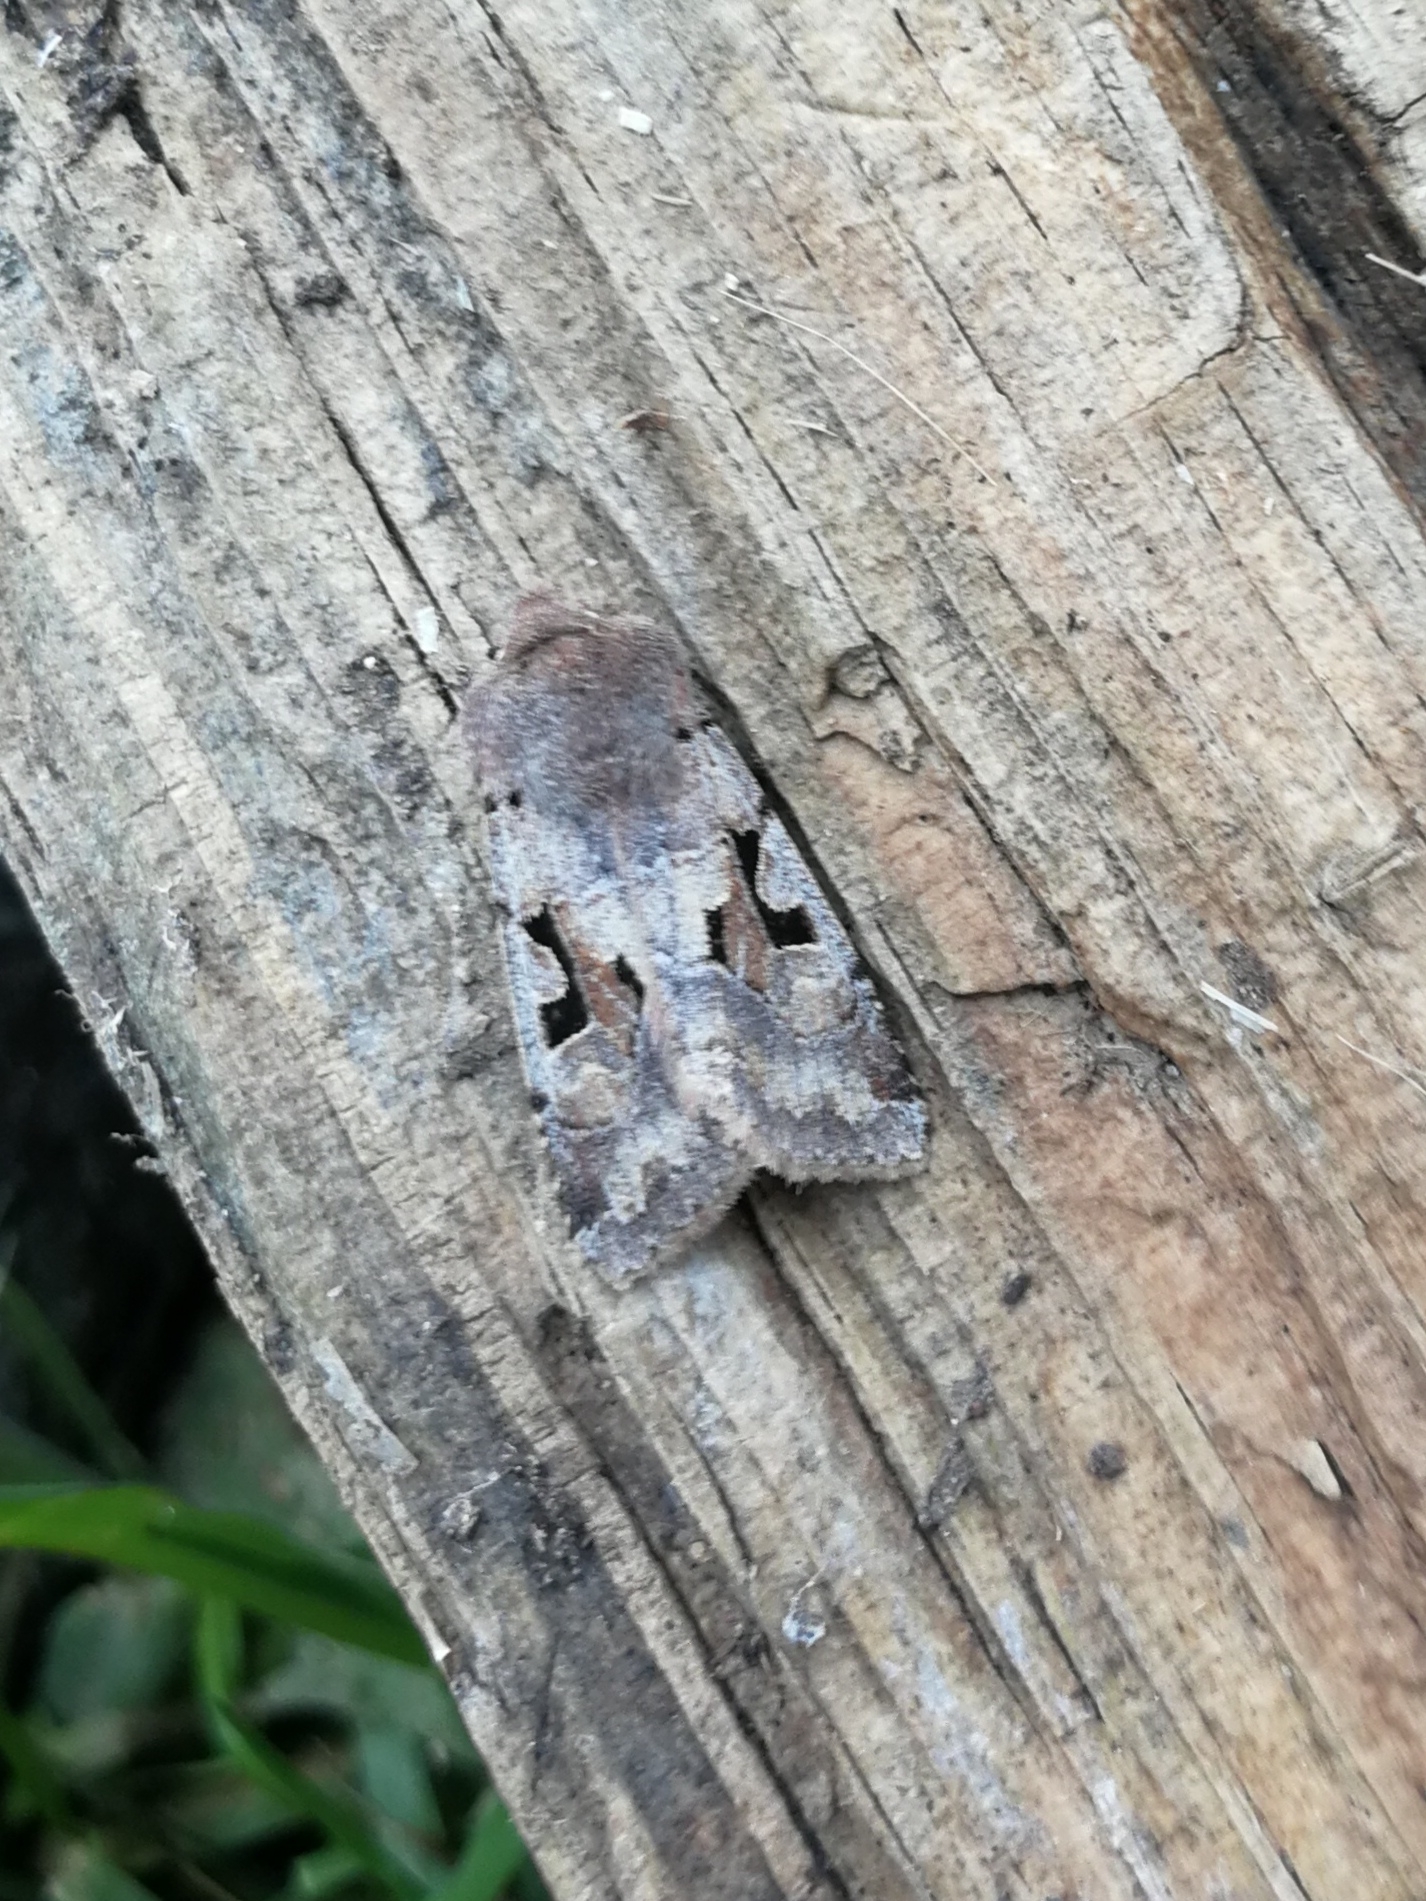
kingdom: Animalia
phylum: Arthropoda
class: Insecta
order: Lepidoptera
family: Noctuidae
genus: Orthosia
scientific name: Orthosia gothica
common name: Hebrew character
